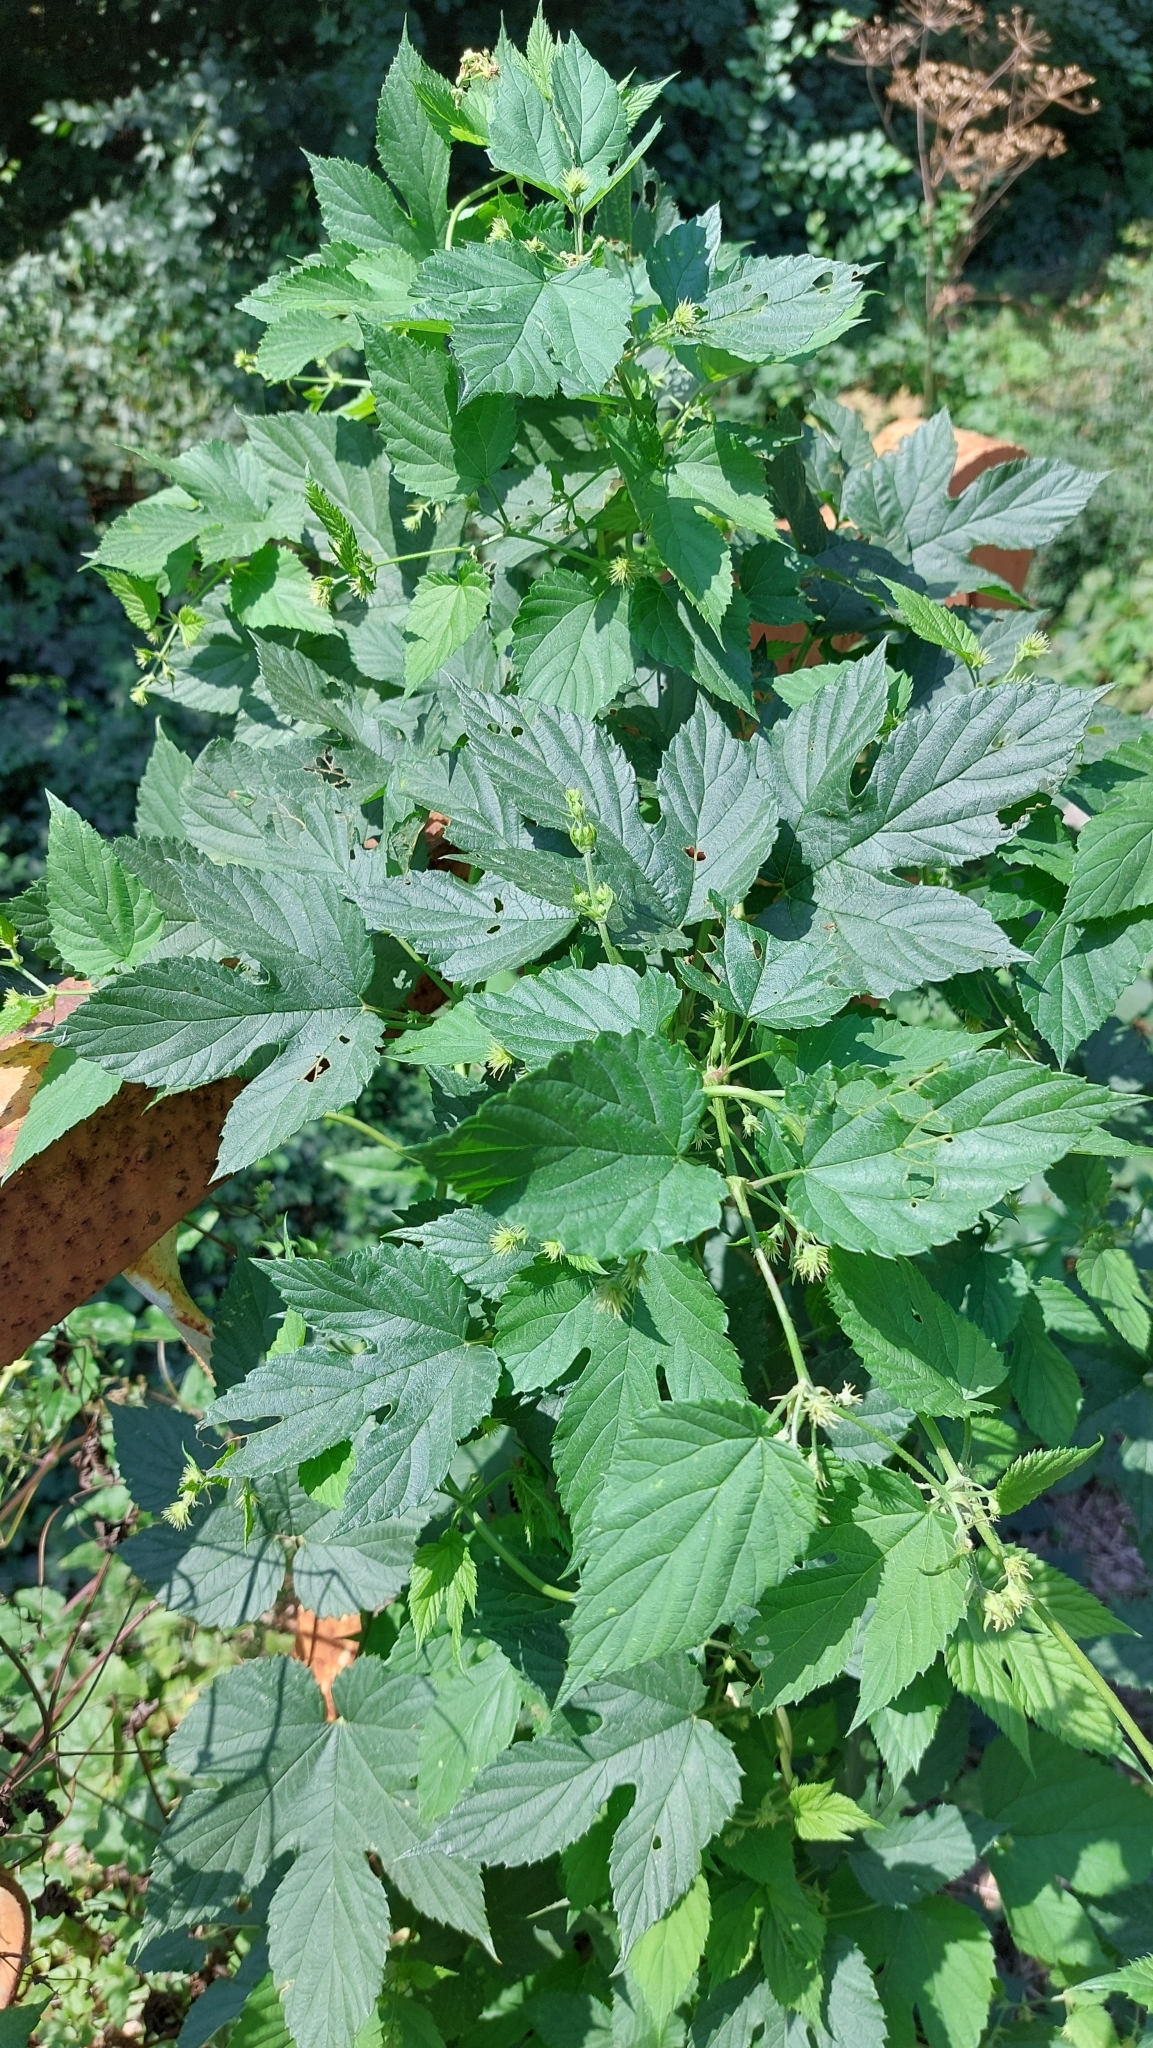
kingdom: Plantae
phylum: Tracheophyta
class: Magnoliopsida
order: Rosales
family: Cannabaceae
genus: Humulus
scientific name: Humulus lupulus
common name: Hop
